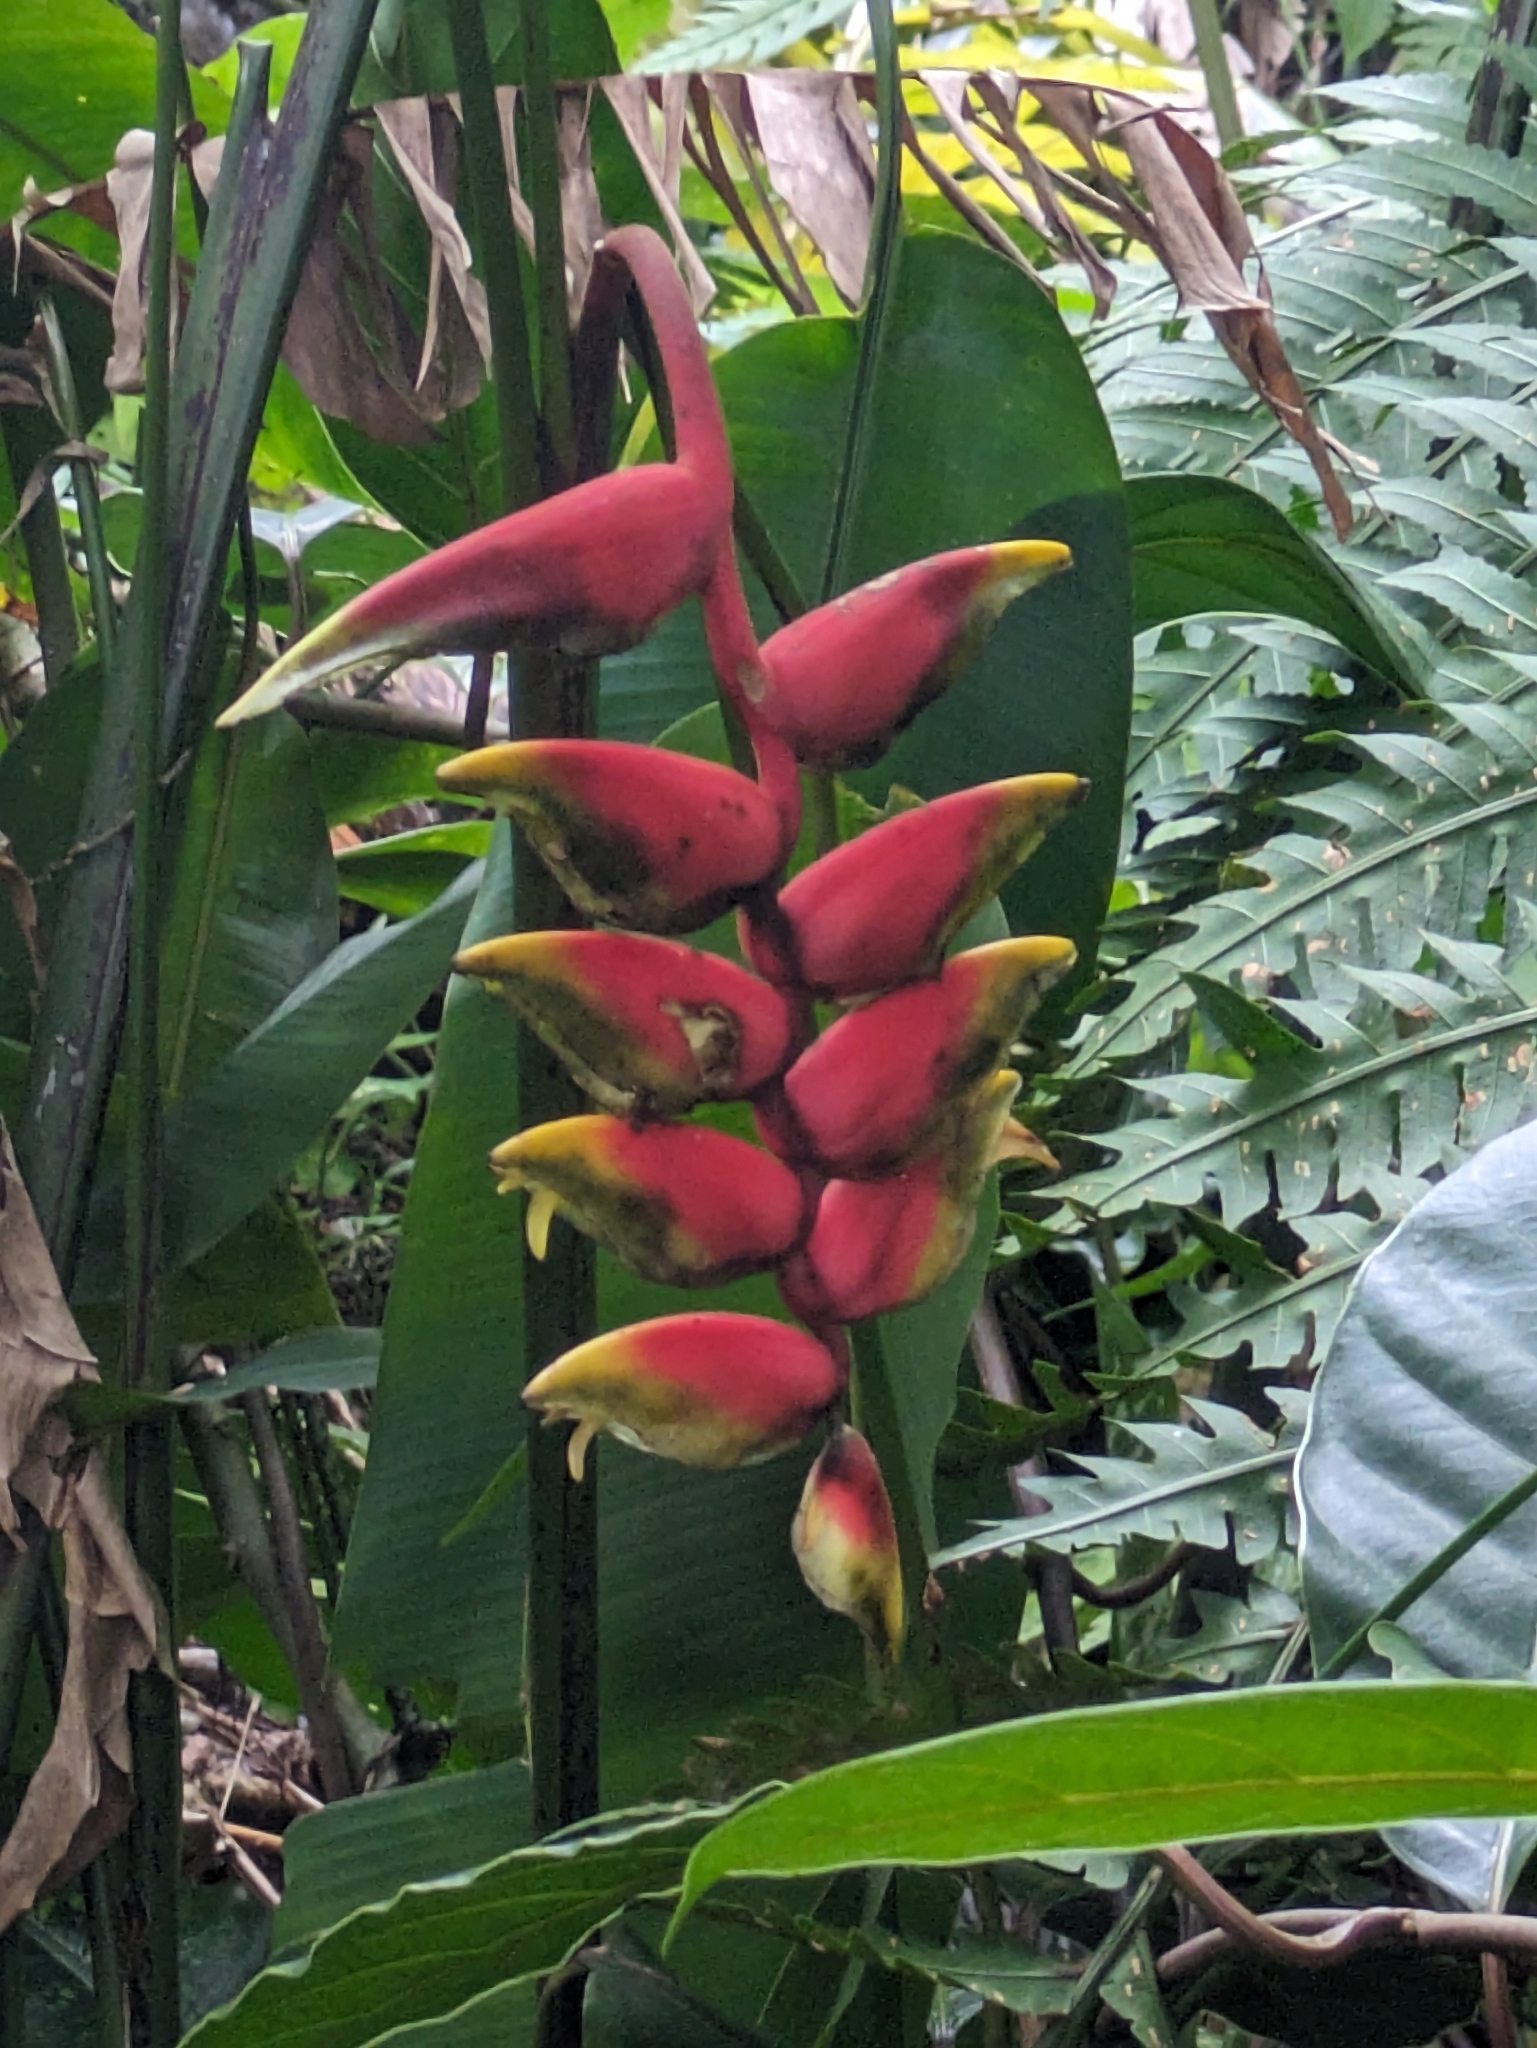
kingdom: Plantae
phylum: Tracheophyta
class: Liliopsida
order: Zingiberales
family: Heliconiaceae
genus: Heliconia
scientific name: Heliconia rostrata
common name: False bird of paradise
